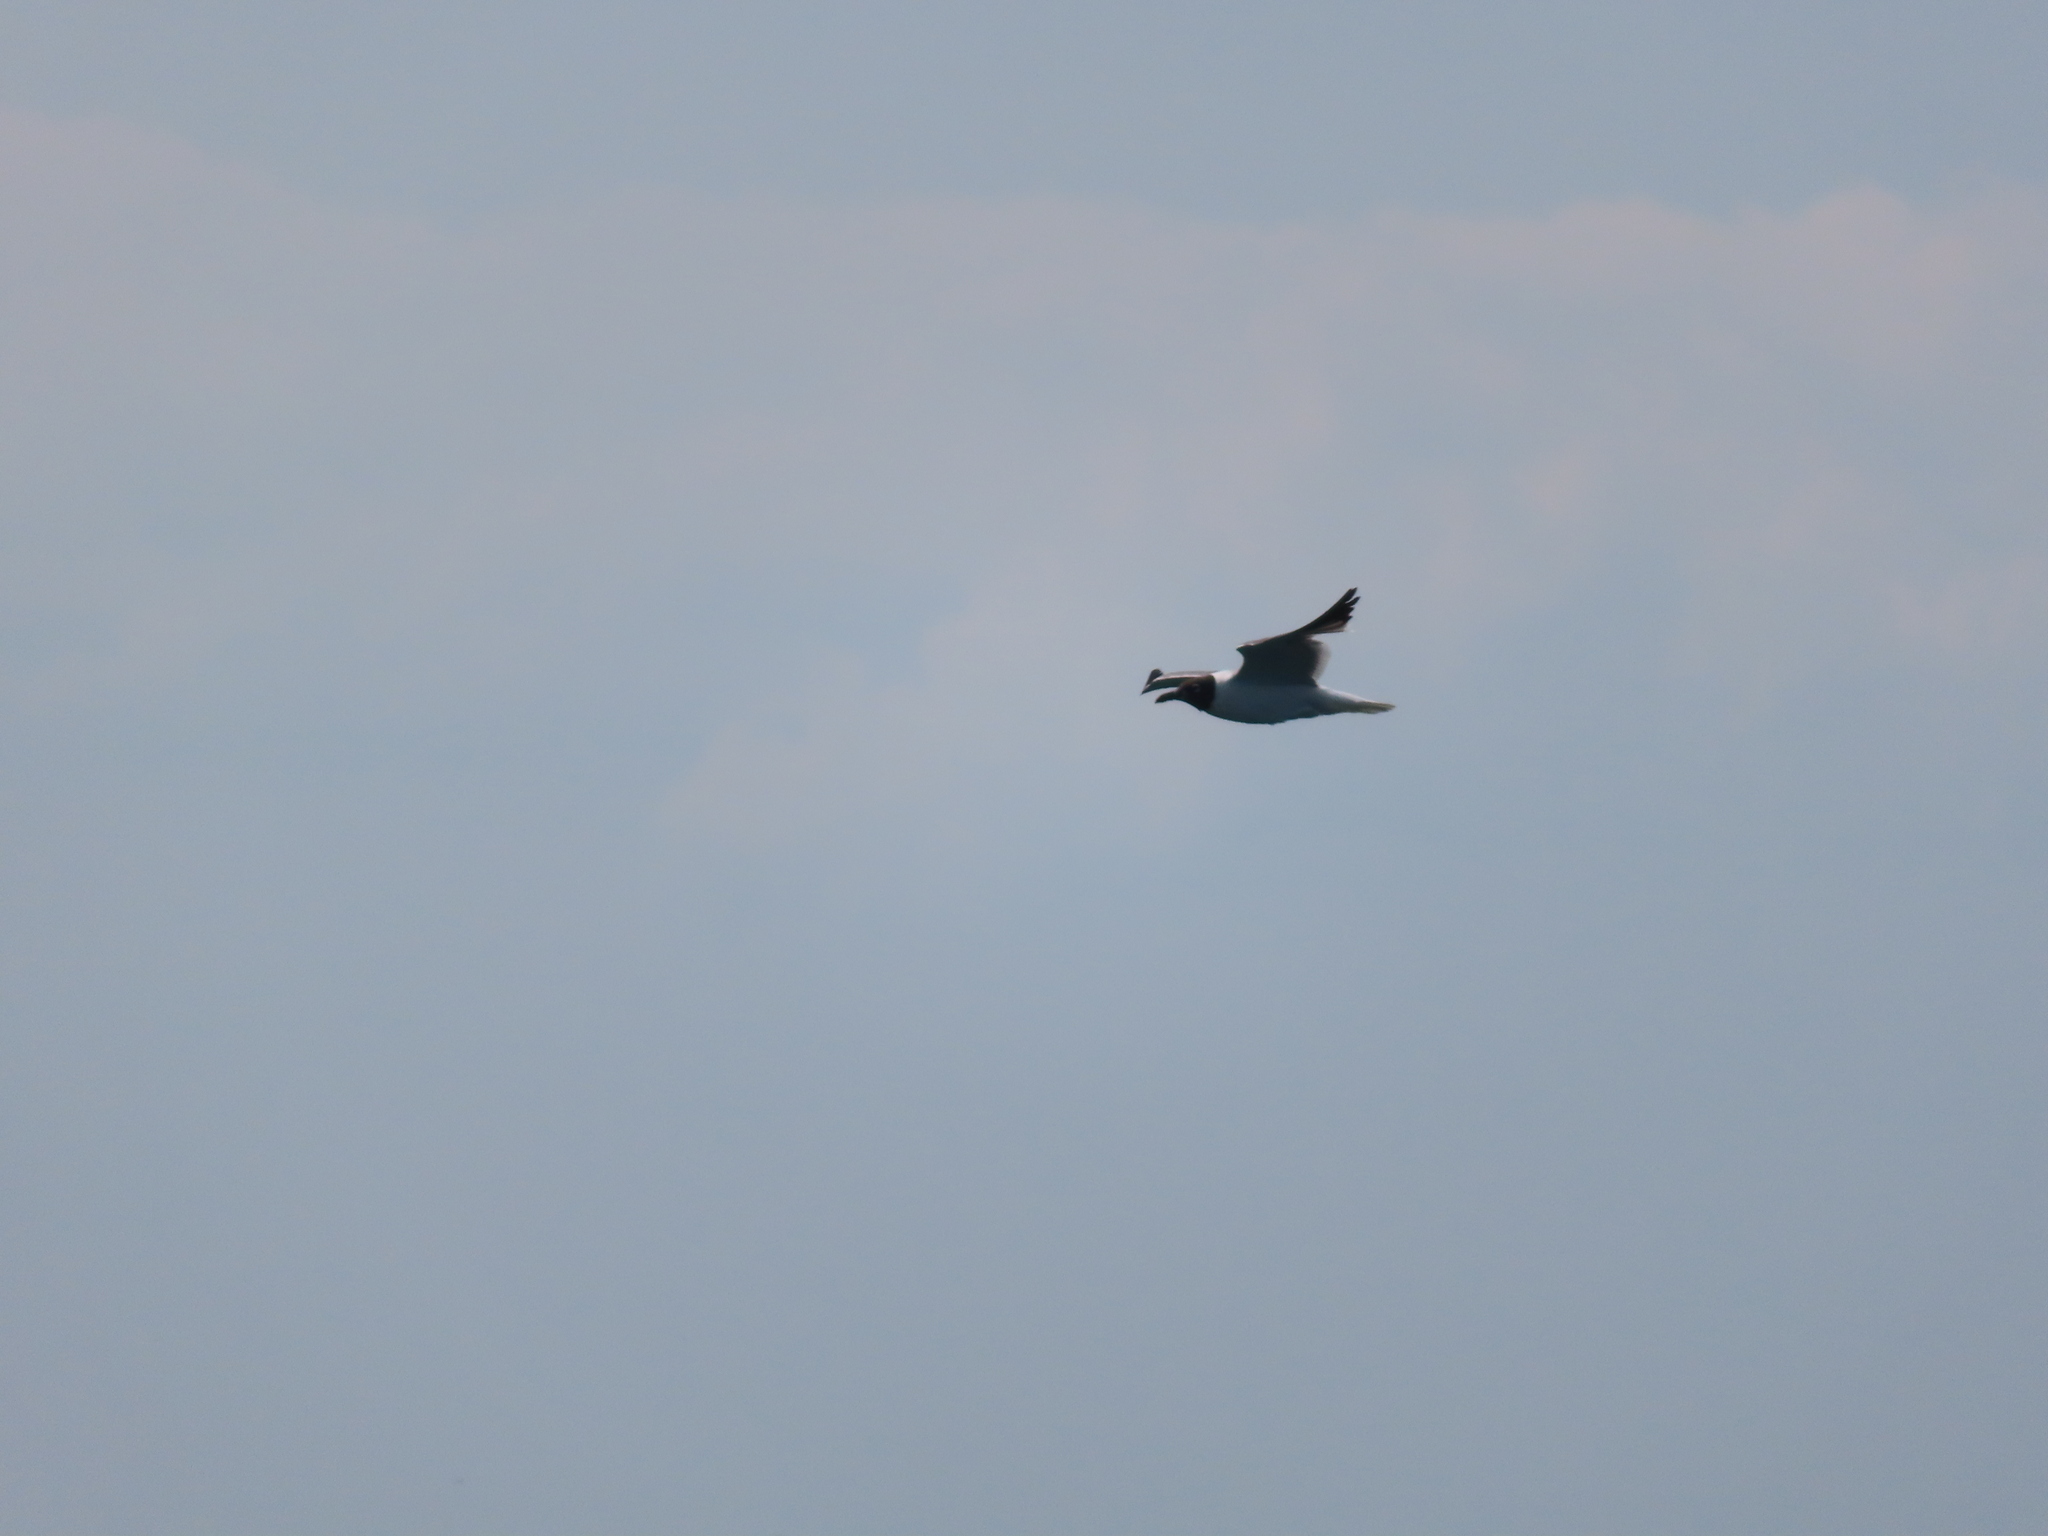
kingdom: Animalia
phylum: Chordata
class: Aves
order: Charadriiformes
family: Laridae
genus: Leucophaeus
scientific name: Leucophaeus atricilla
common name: Laughing gull
